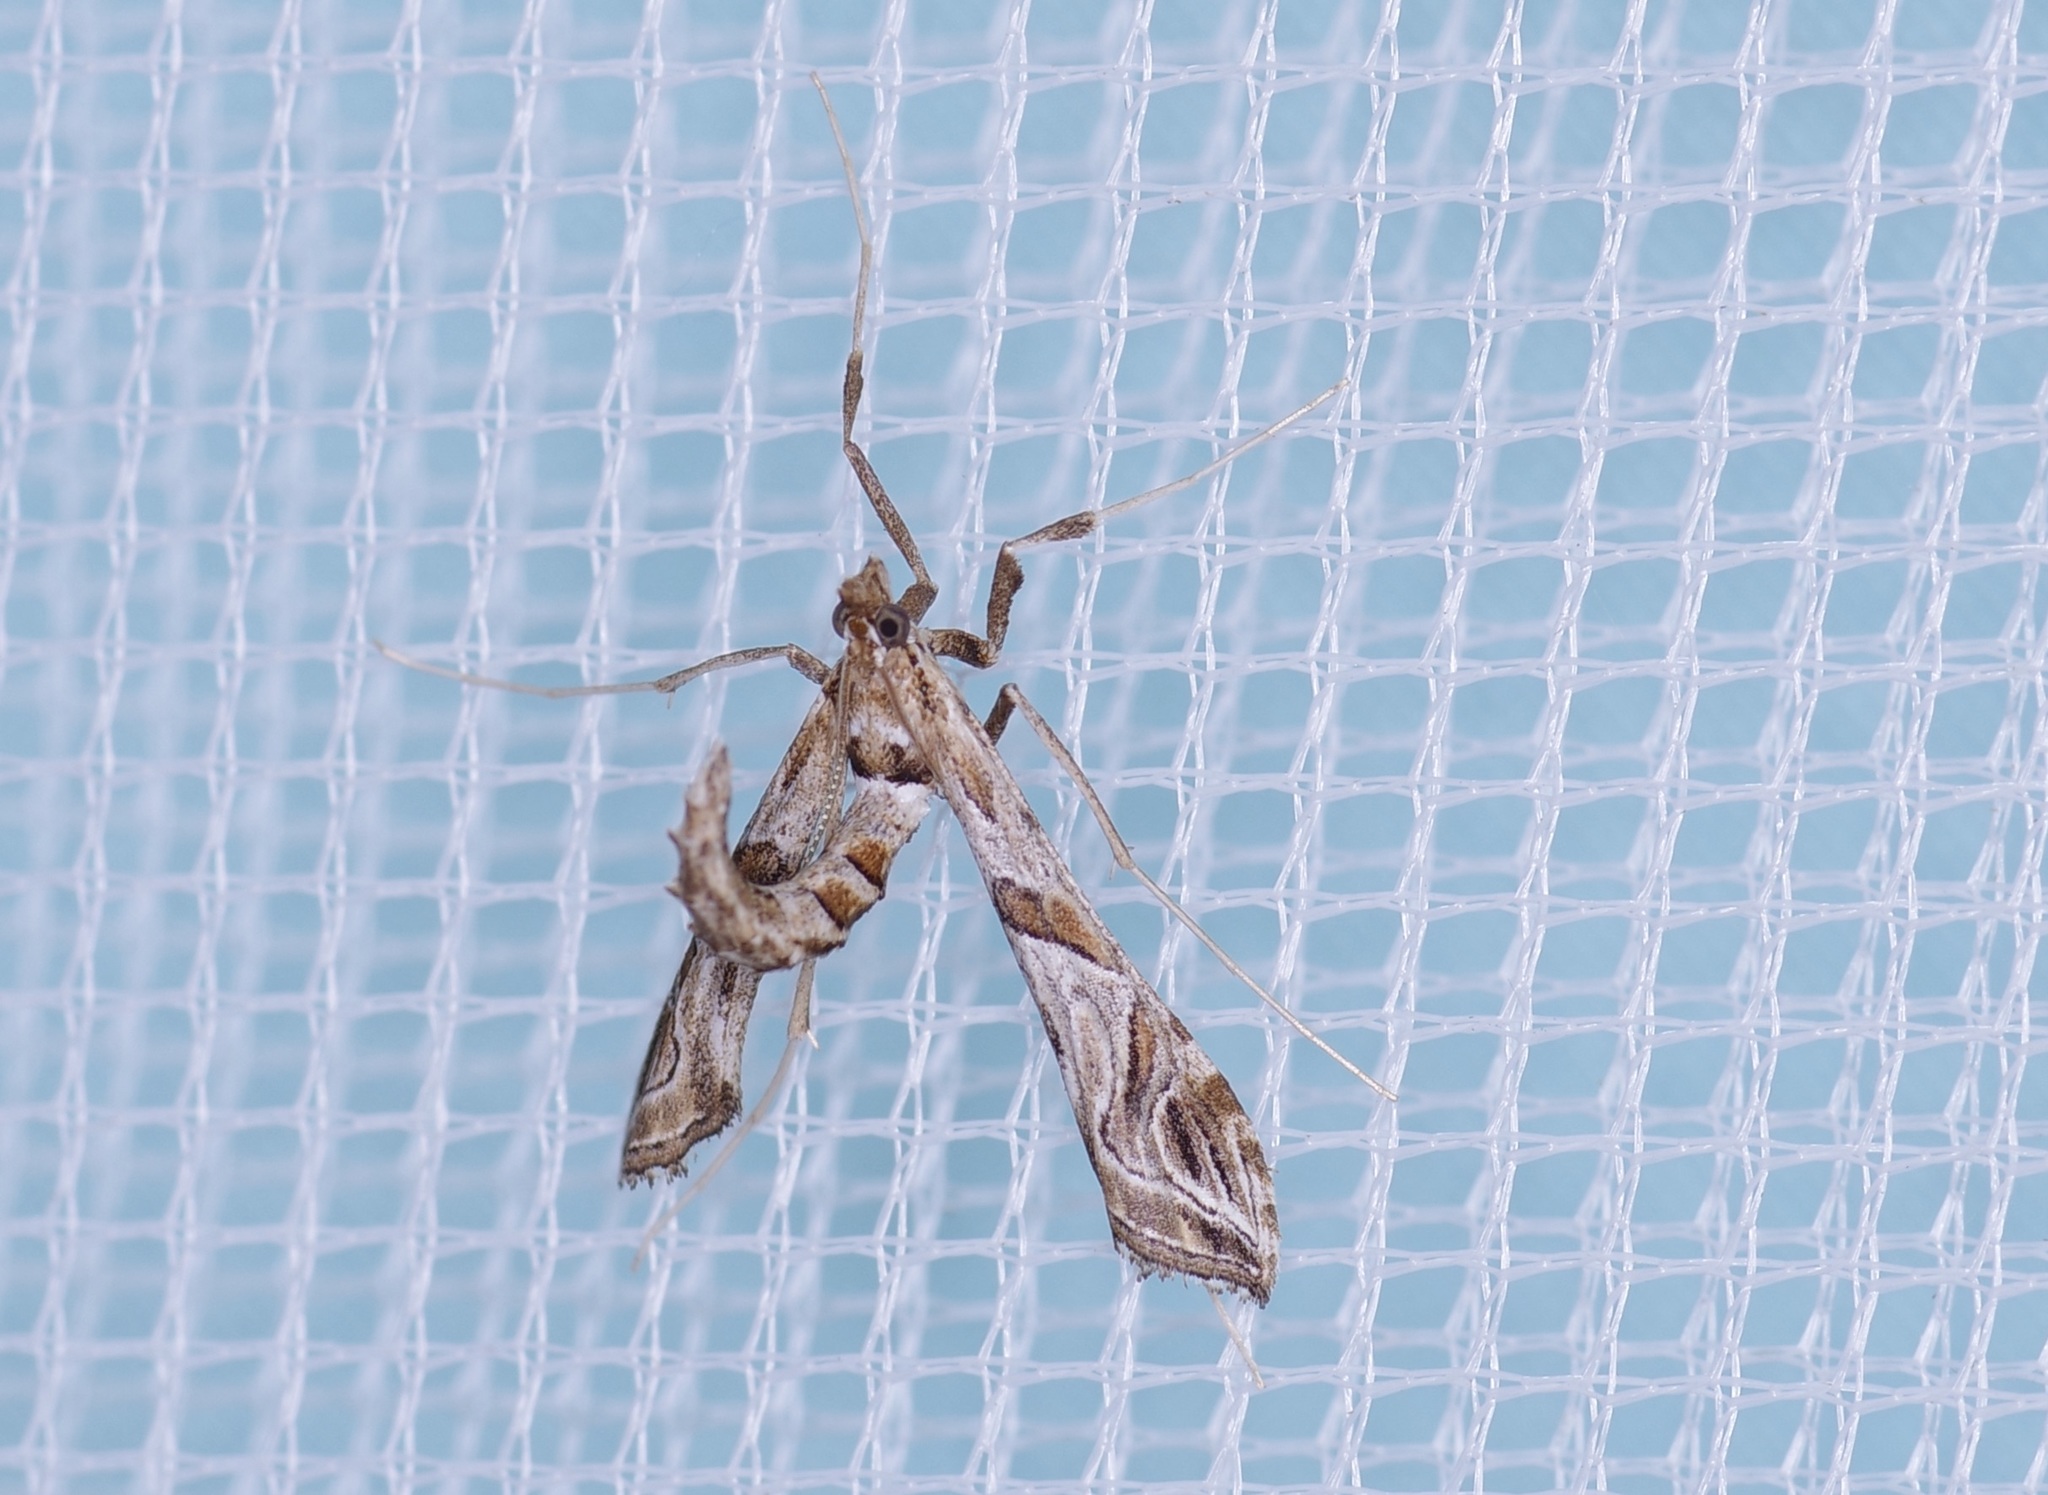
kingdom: Animalia
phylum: Arthropoda
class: Insecta
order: Lepidoptera
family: Crambidae
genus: Lineodes
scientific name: Lineodes interrupta
